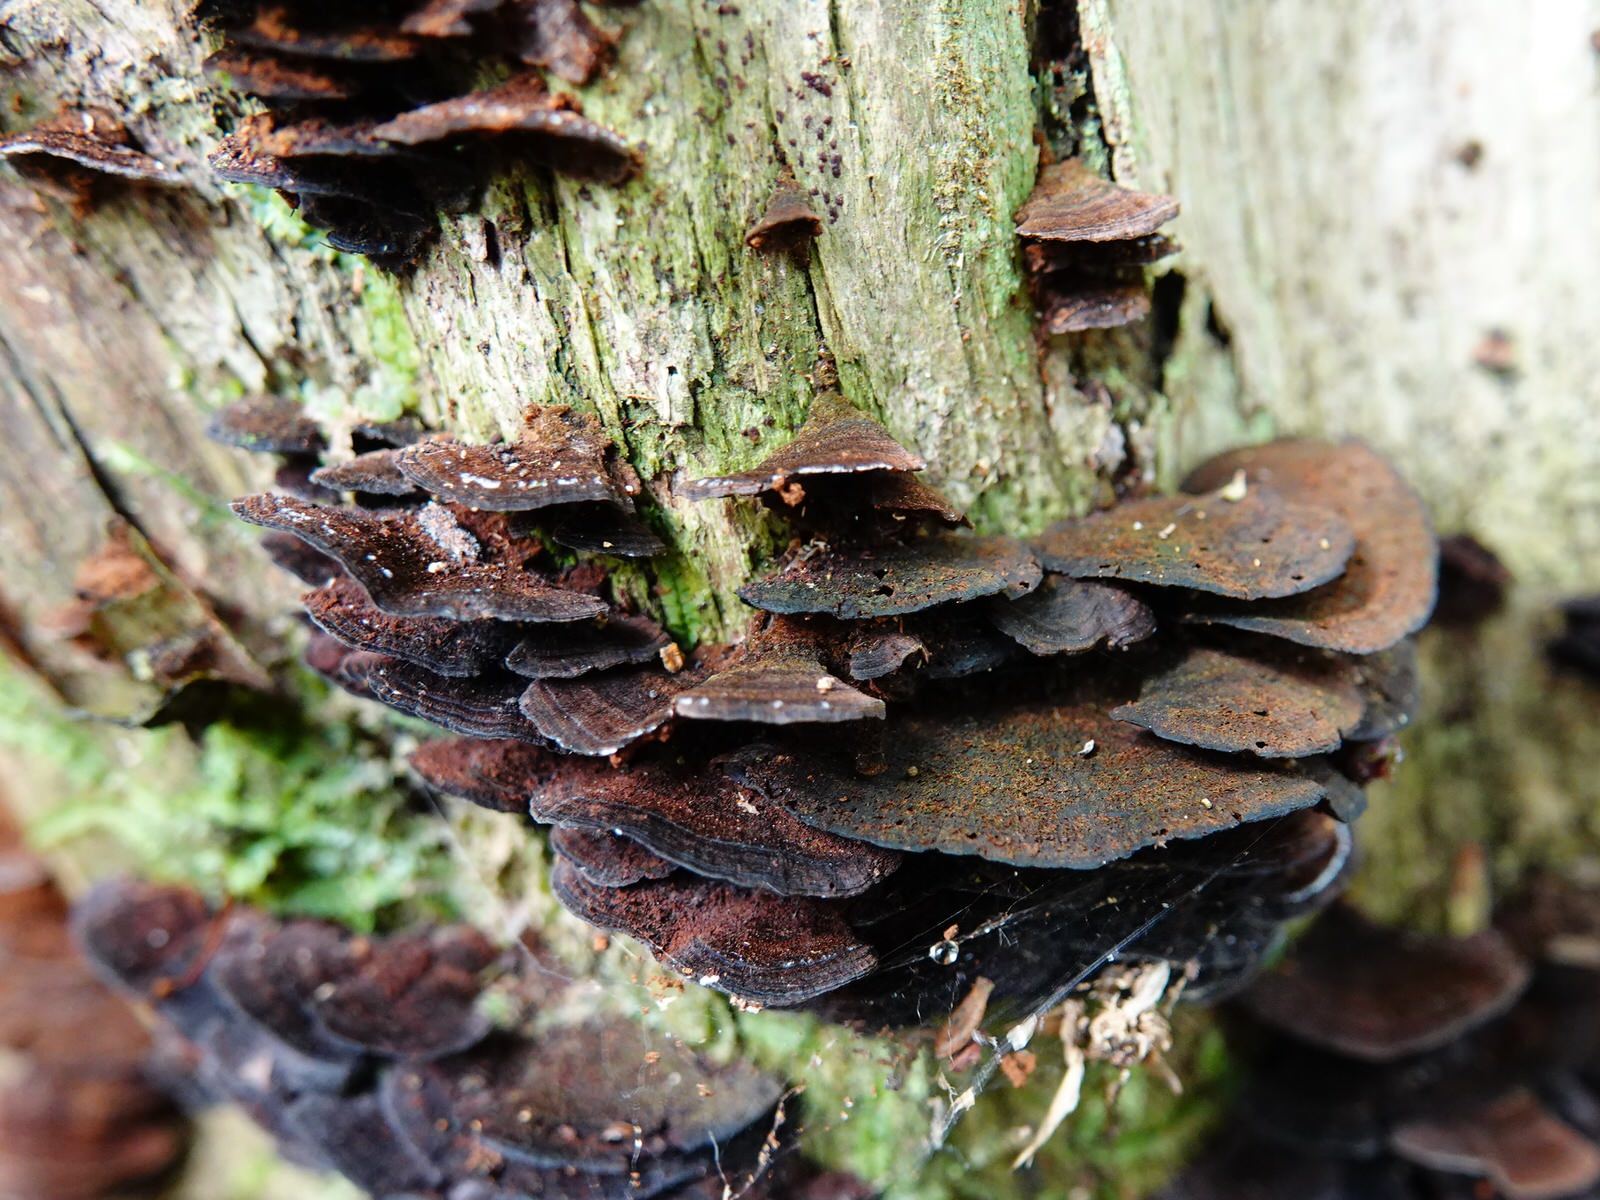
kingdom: Fungi
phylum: Basidiomycota
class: Agaricomycetes
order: Hymenochaetales
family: Hymenochaetaceae
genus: Hymenochaete
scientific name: Hymenochaete microcycla
